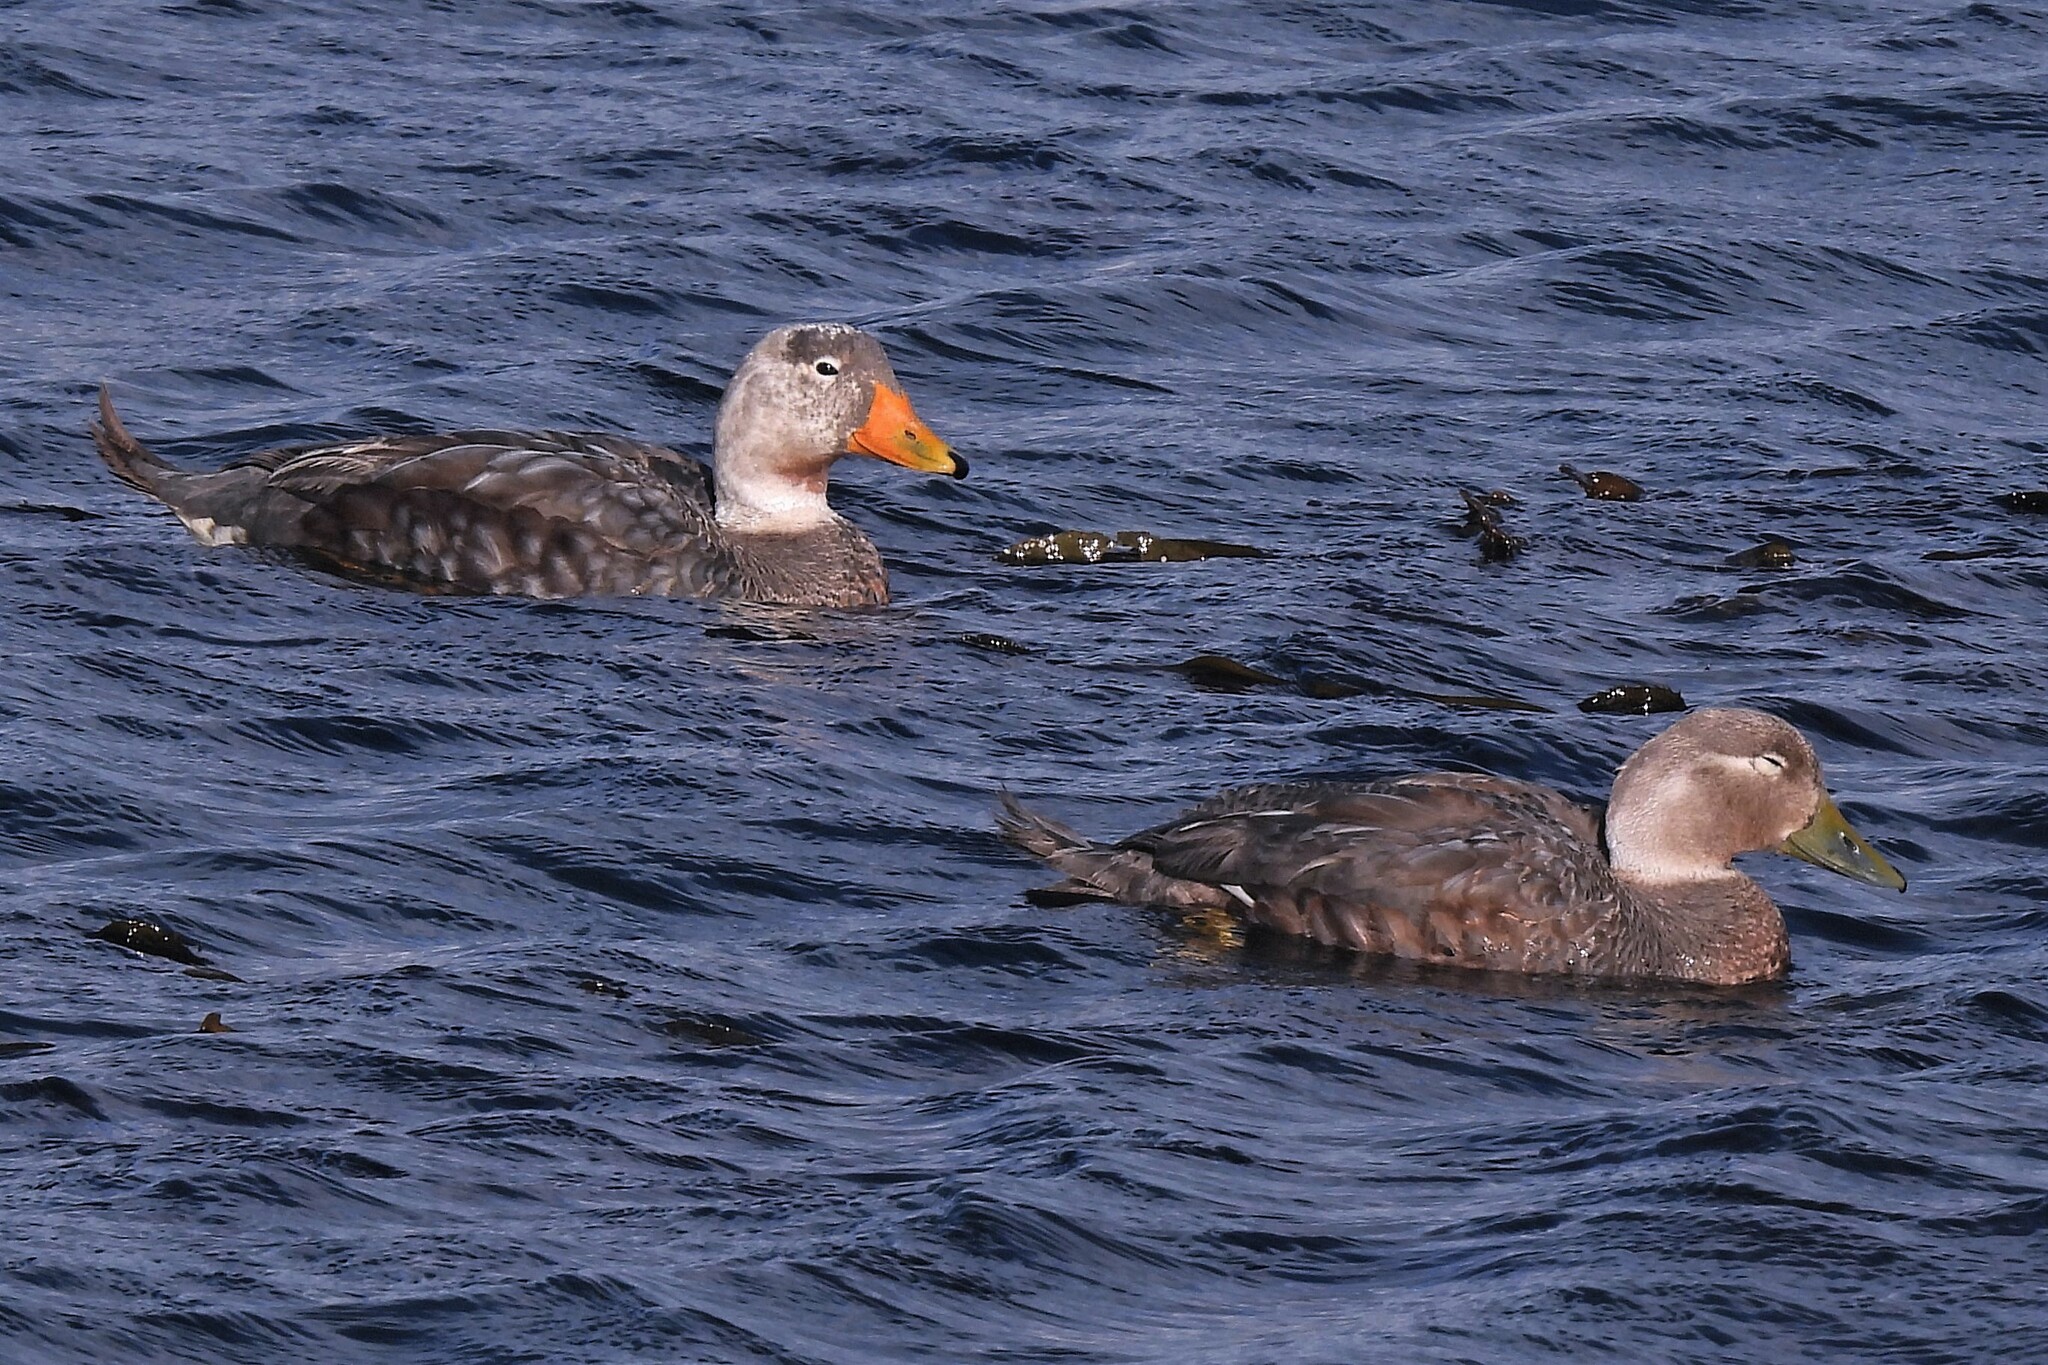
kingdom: Animalia
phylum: Chordata
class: Aves
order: Anseriformes
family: Anatidae
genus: Tachyeres
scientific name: Tachyeres patachonicus
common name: Flying steamer duck
